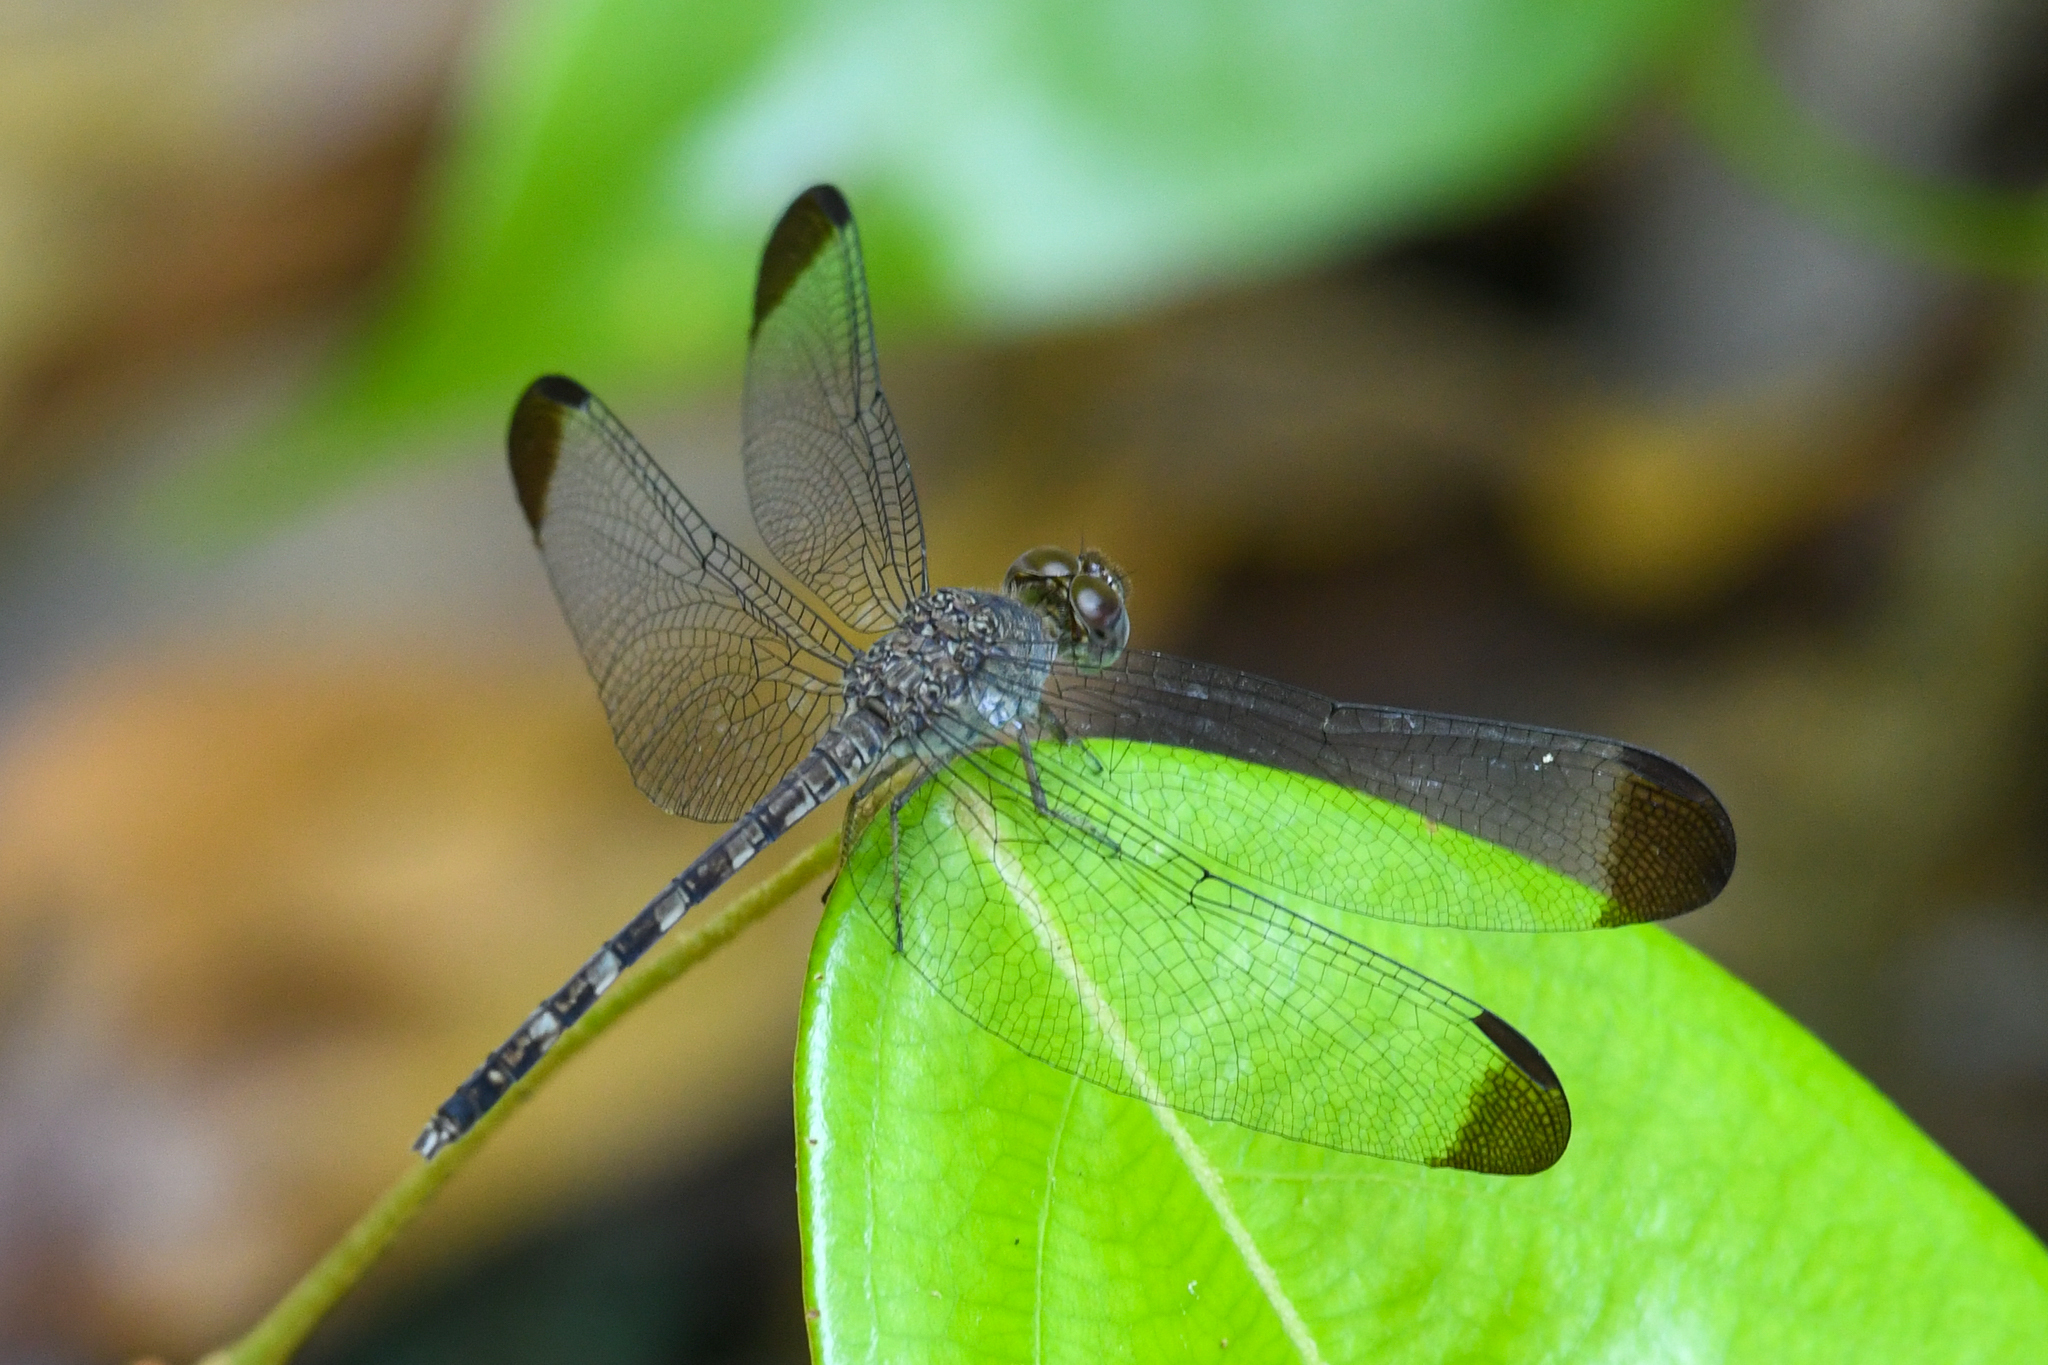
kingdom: Animalia
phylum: Arthropoda
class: Insecta
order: Odonata
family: Libellulidae
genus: Uracis
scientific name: Uracis imbuta
